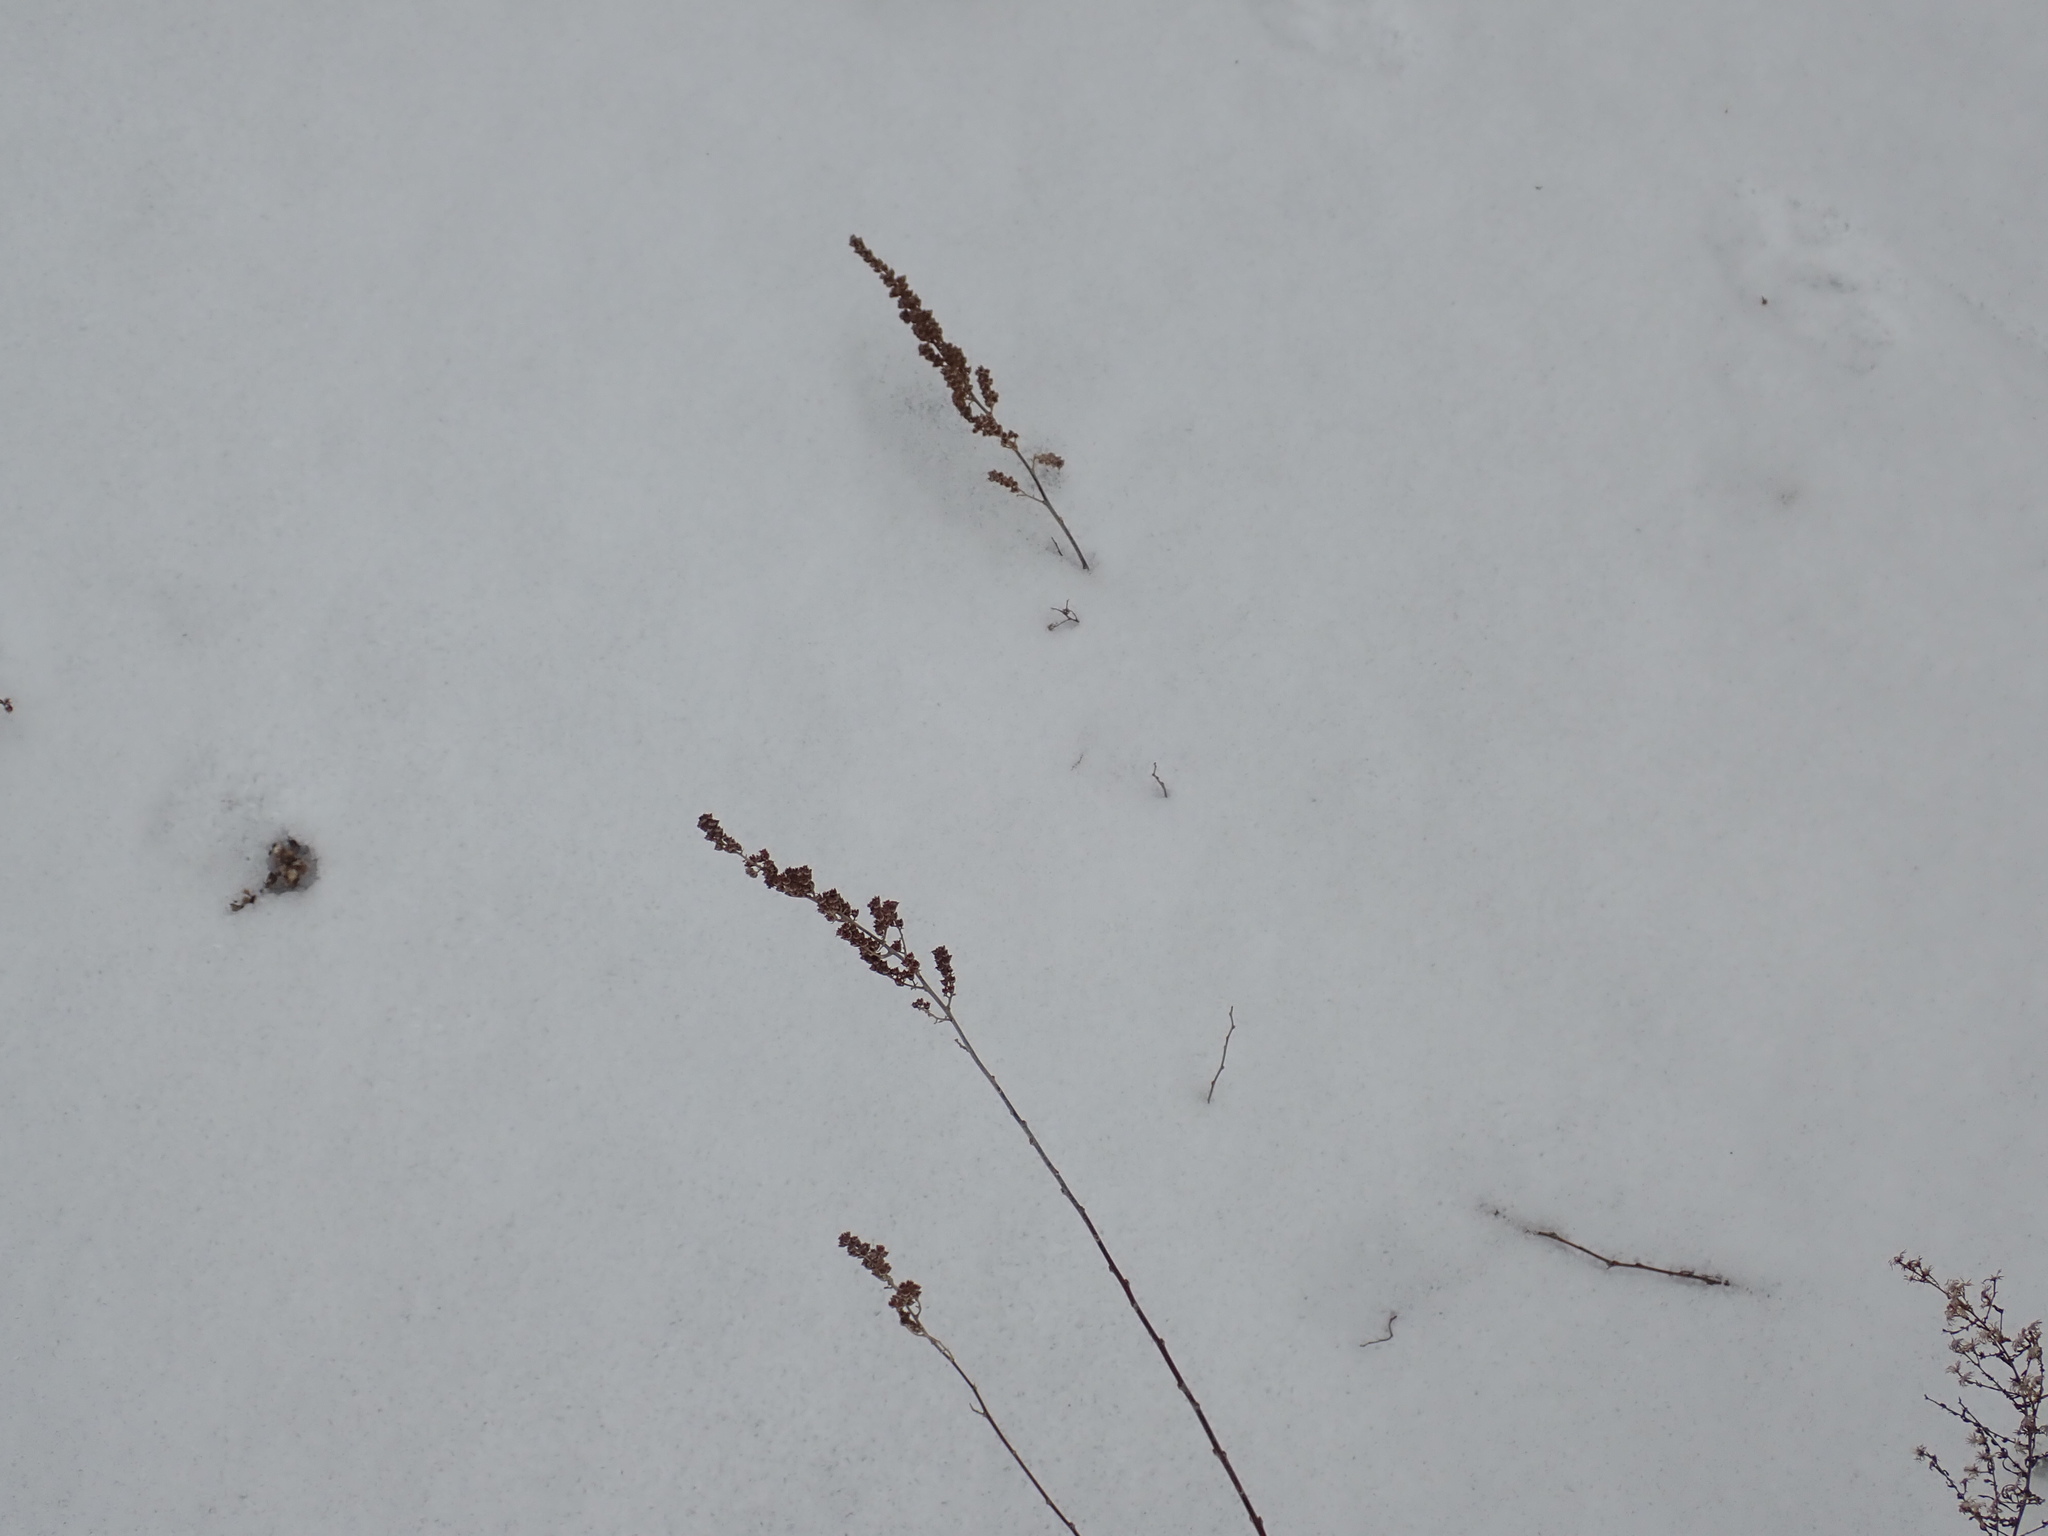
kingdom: Plantae
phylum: Tracheophyta
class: Magnoliopsida
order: Rosales
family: Rosaceae
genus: Spiraea
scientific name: Spiraea tomentosa
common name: Hardhack
